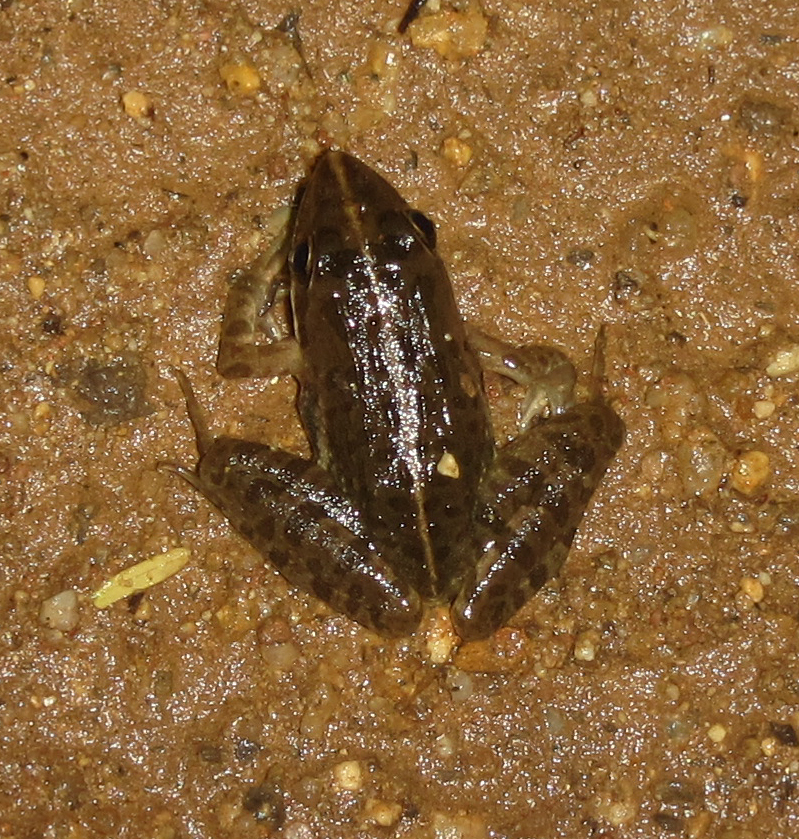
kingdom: Animalia
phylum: Chordata
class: Amphibia
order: Anura
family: Pyxicephalidae
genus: Amietia
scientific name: Amietia delalandii
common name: Delalande's river frog
